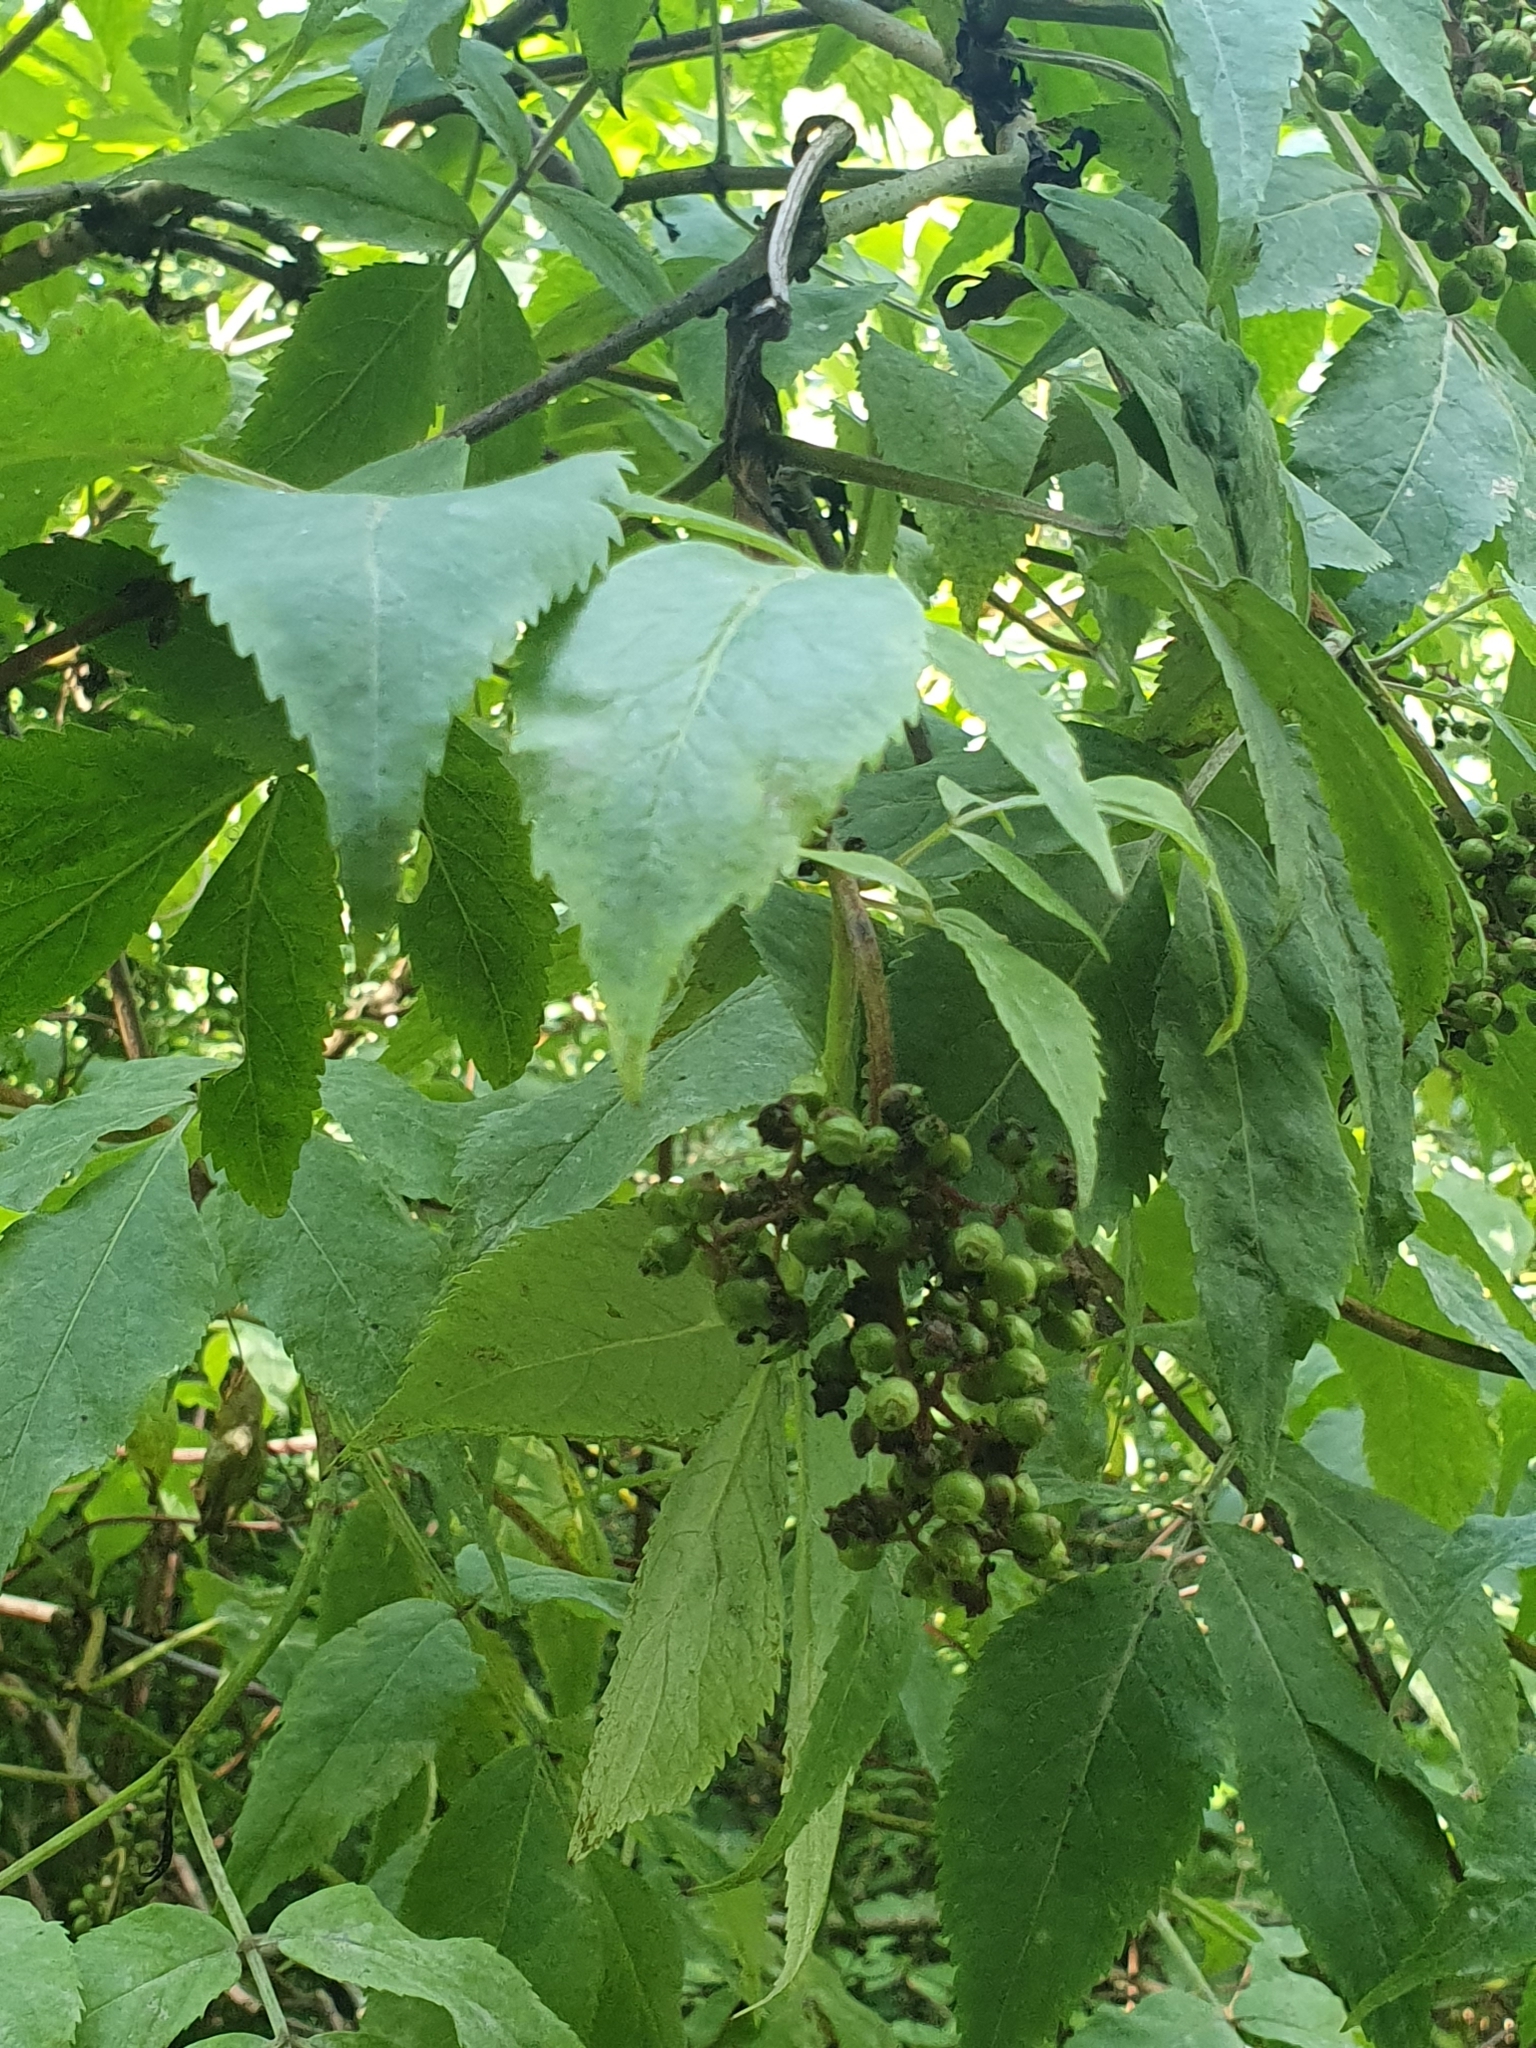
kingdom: Plantae
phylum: Tracheophyta
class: Magnoliopsida
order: Dipsacales
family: Viburnaceae
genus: Sambucus
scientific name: Sambucus racemosa
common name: Red-berried elder
